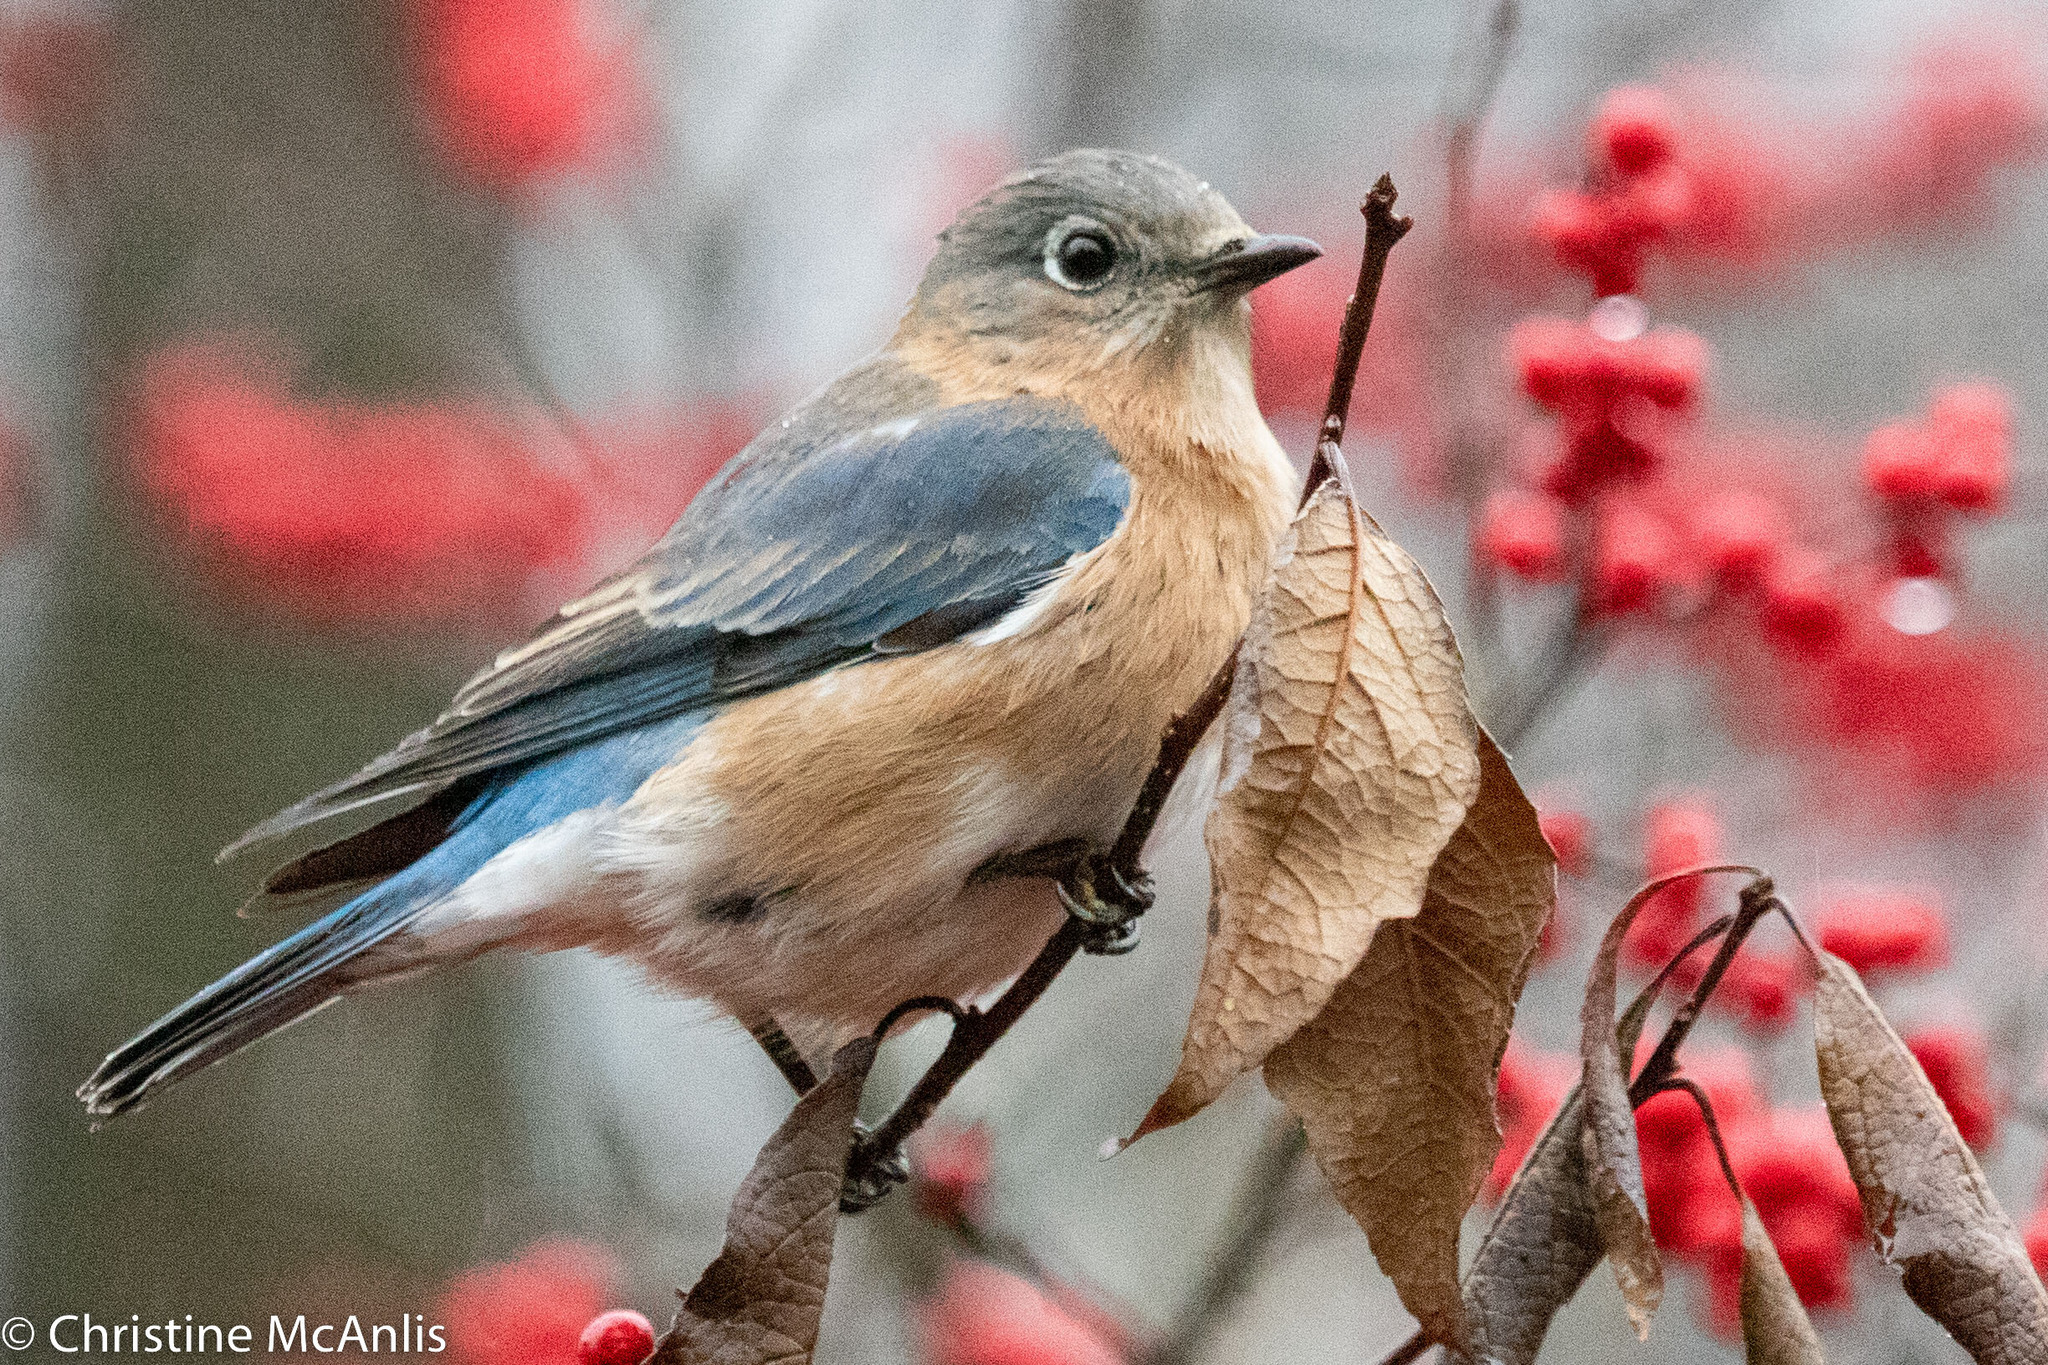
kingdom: Animalia
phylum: Chordata
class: Aves
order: Passeriformes
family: Turdidae
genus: Sialia
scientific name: Sialia sialis
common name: Eastern bluebird
